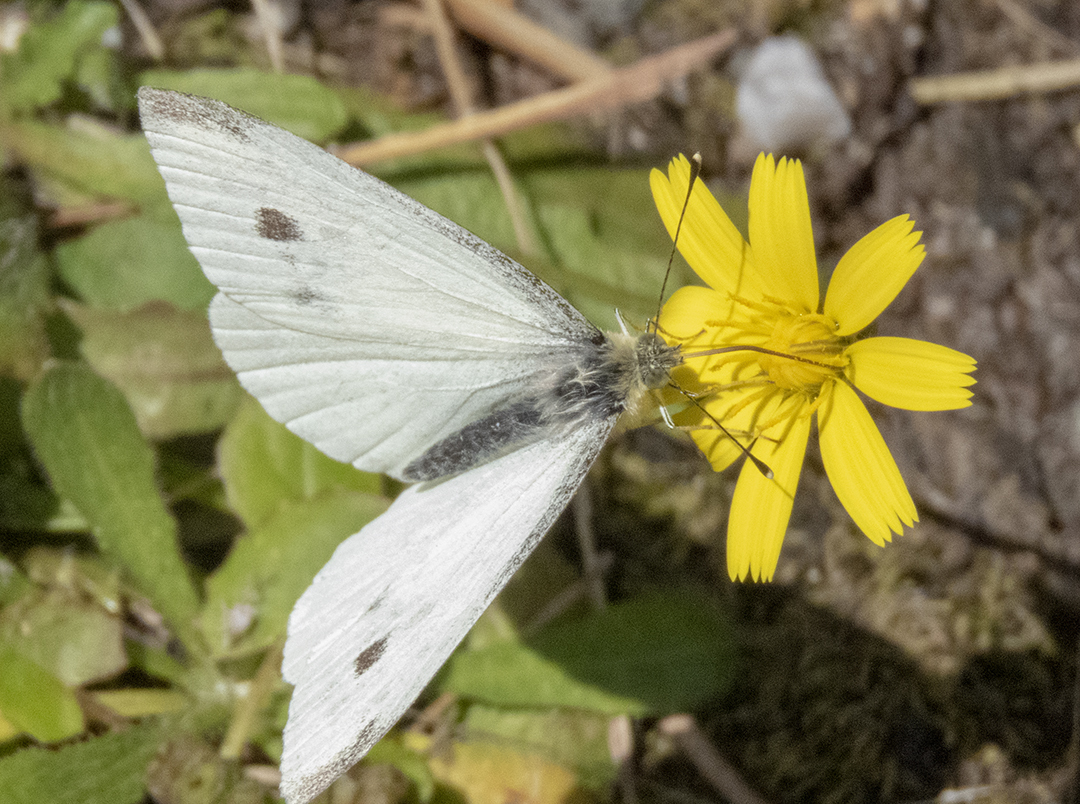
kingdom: Animalia
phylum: Arthropoda
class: Insecta
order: Lepidoptera
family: Pieridae
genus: Pieris
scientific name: Pieris rapae
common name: Small white
